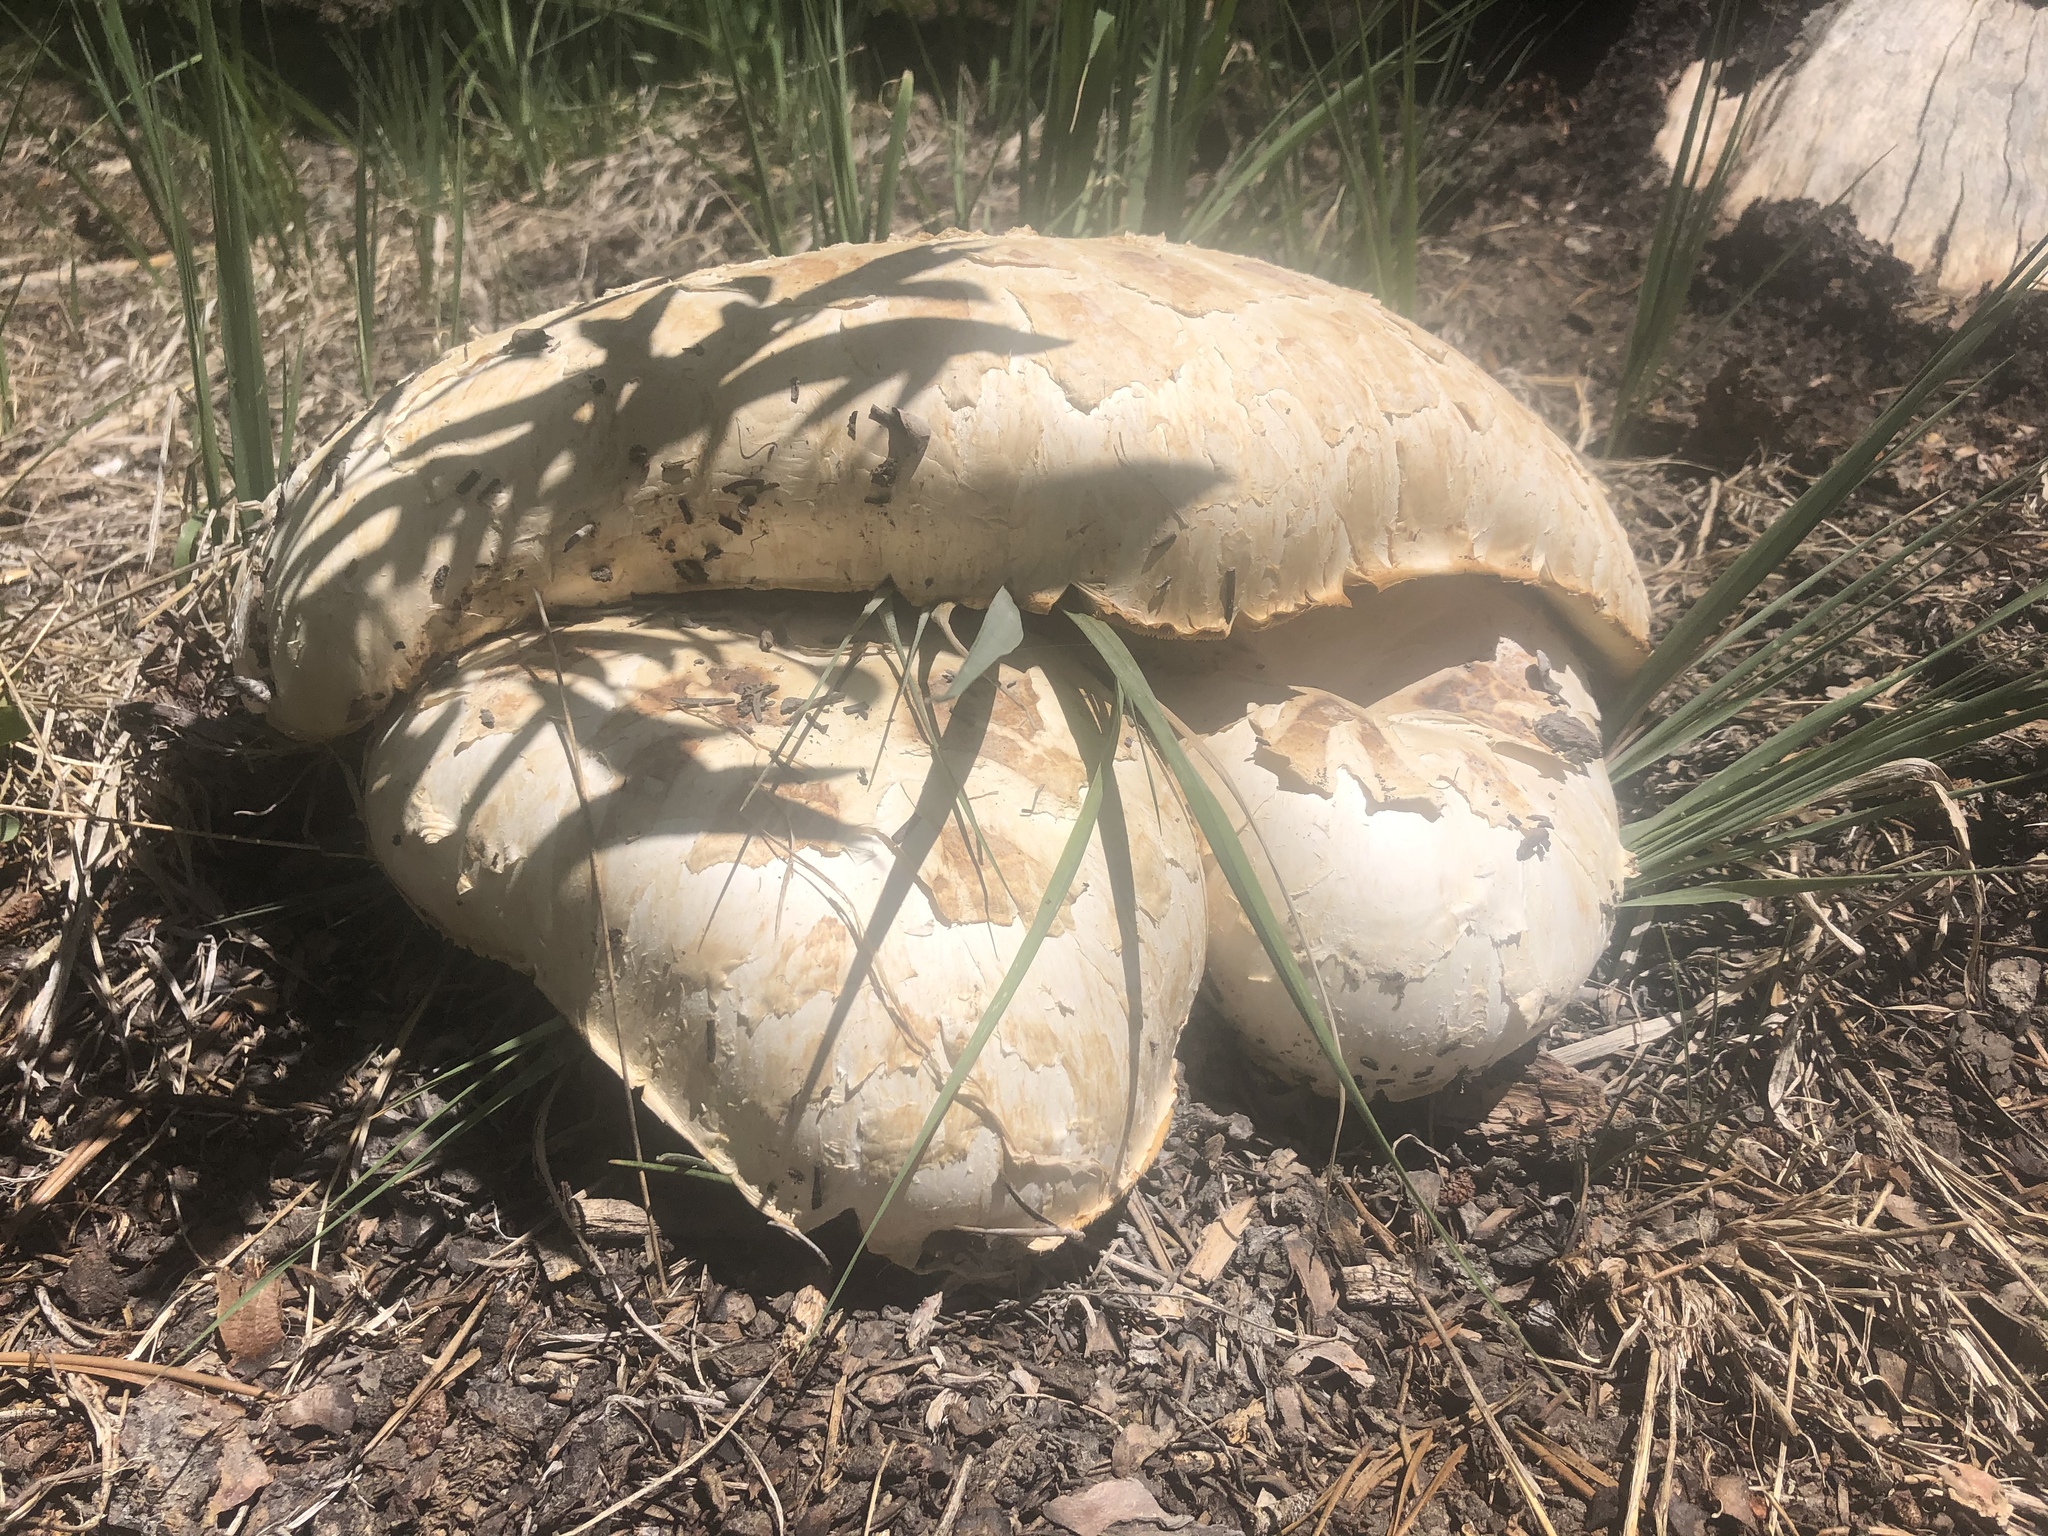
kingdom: Fungi
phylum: Basidiomycota
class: Agaricomycetes
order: Gloeophyllales
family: Gloeophyllaceae
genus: Neolentinus
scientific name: Neolentinus ponderosus
